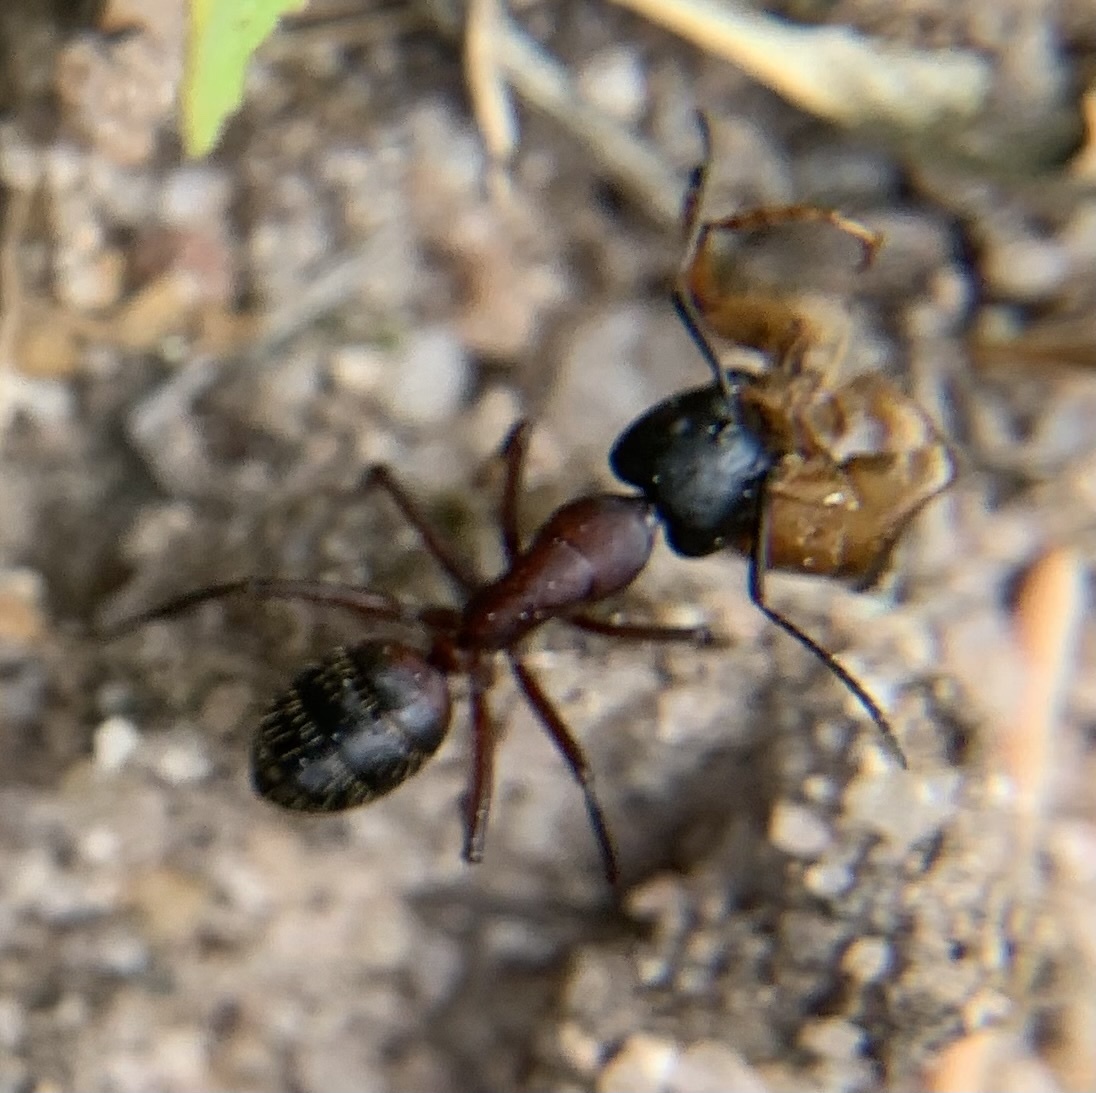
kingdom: Animalia
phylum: Arthropoda
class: Insecta
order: Hymenoptera
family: Formicidae
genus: Camponotus
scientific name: Camponotus ligniperdus
